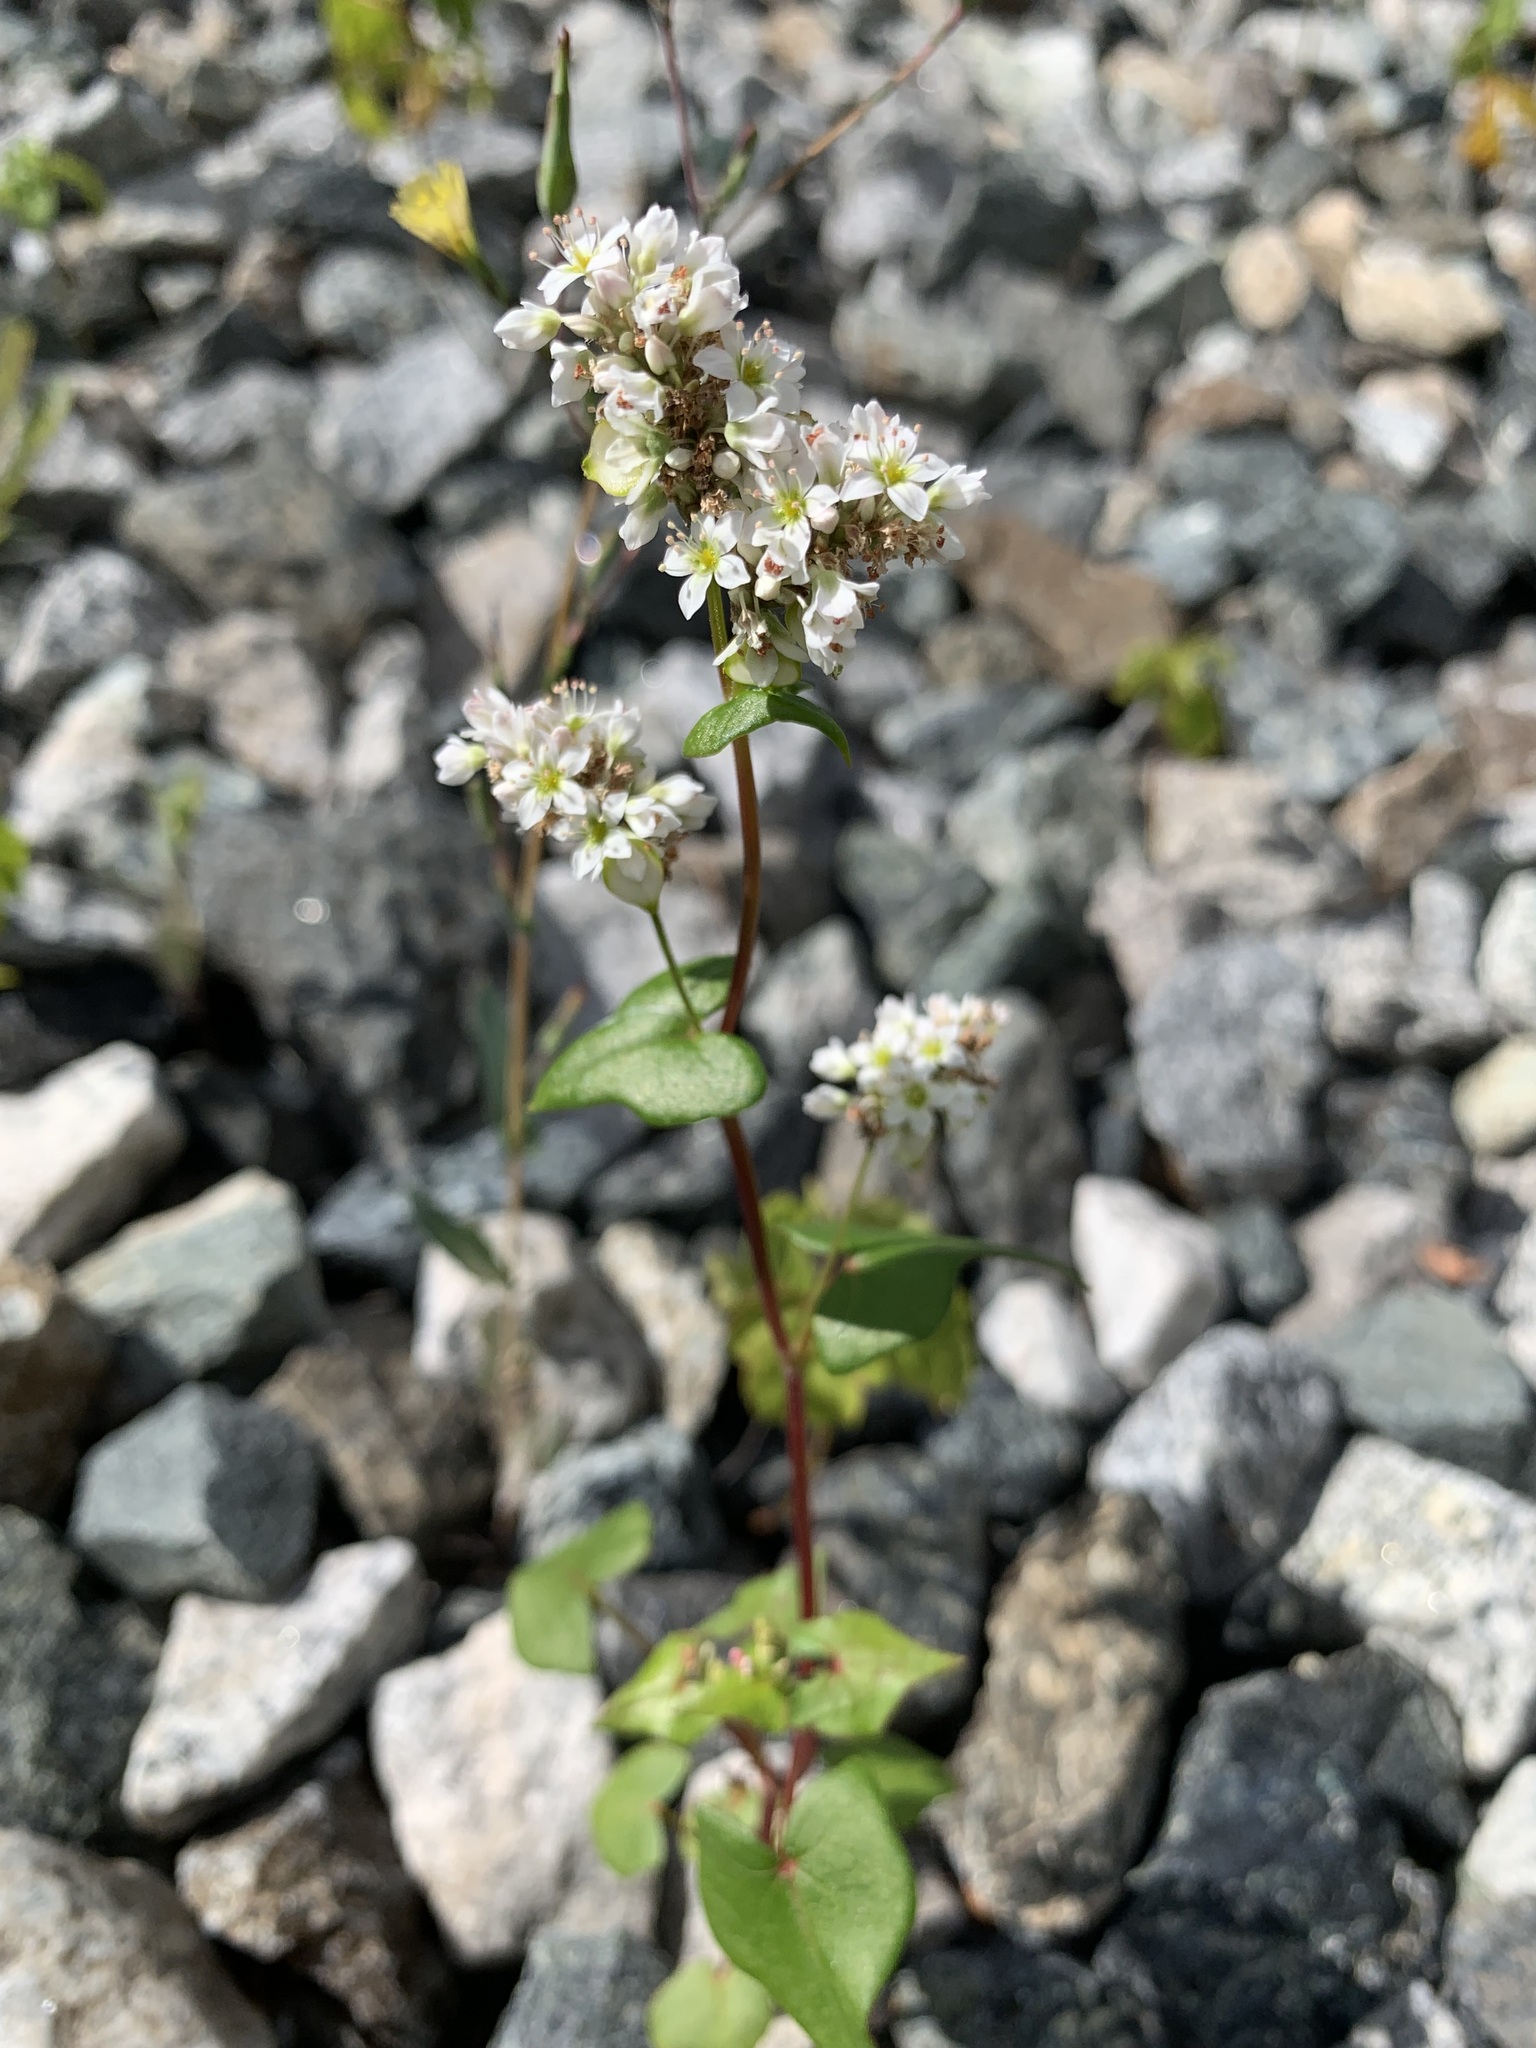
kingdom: Plantae
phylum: Tracheophyta
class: Magnoliopsida
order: Caryophyllales
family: Polygonaceae
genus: Fagopyrum
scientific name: Fagopyrum esculentum
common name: Buckwheat
